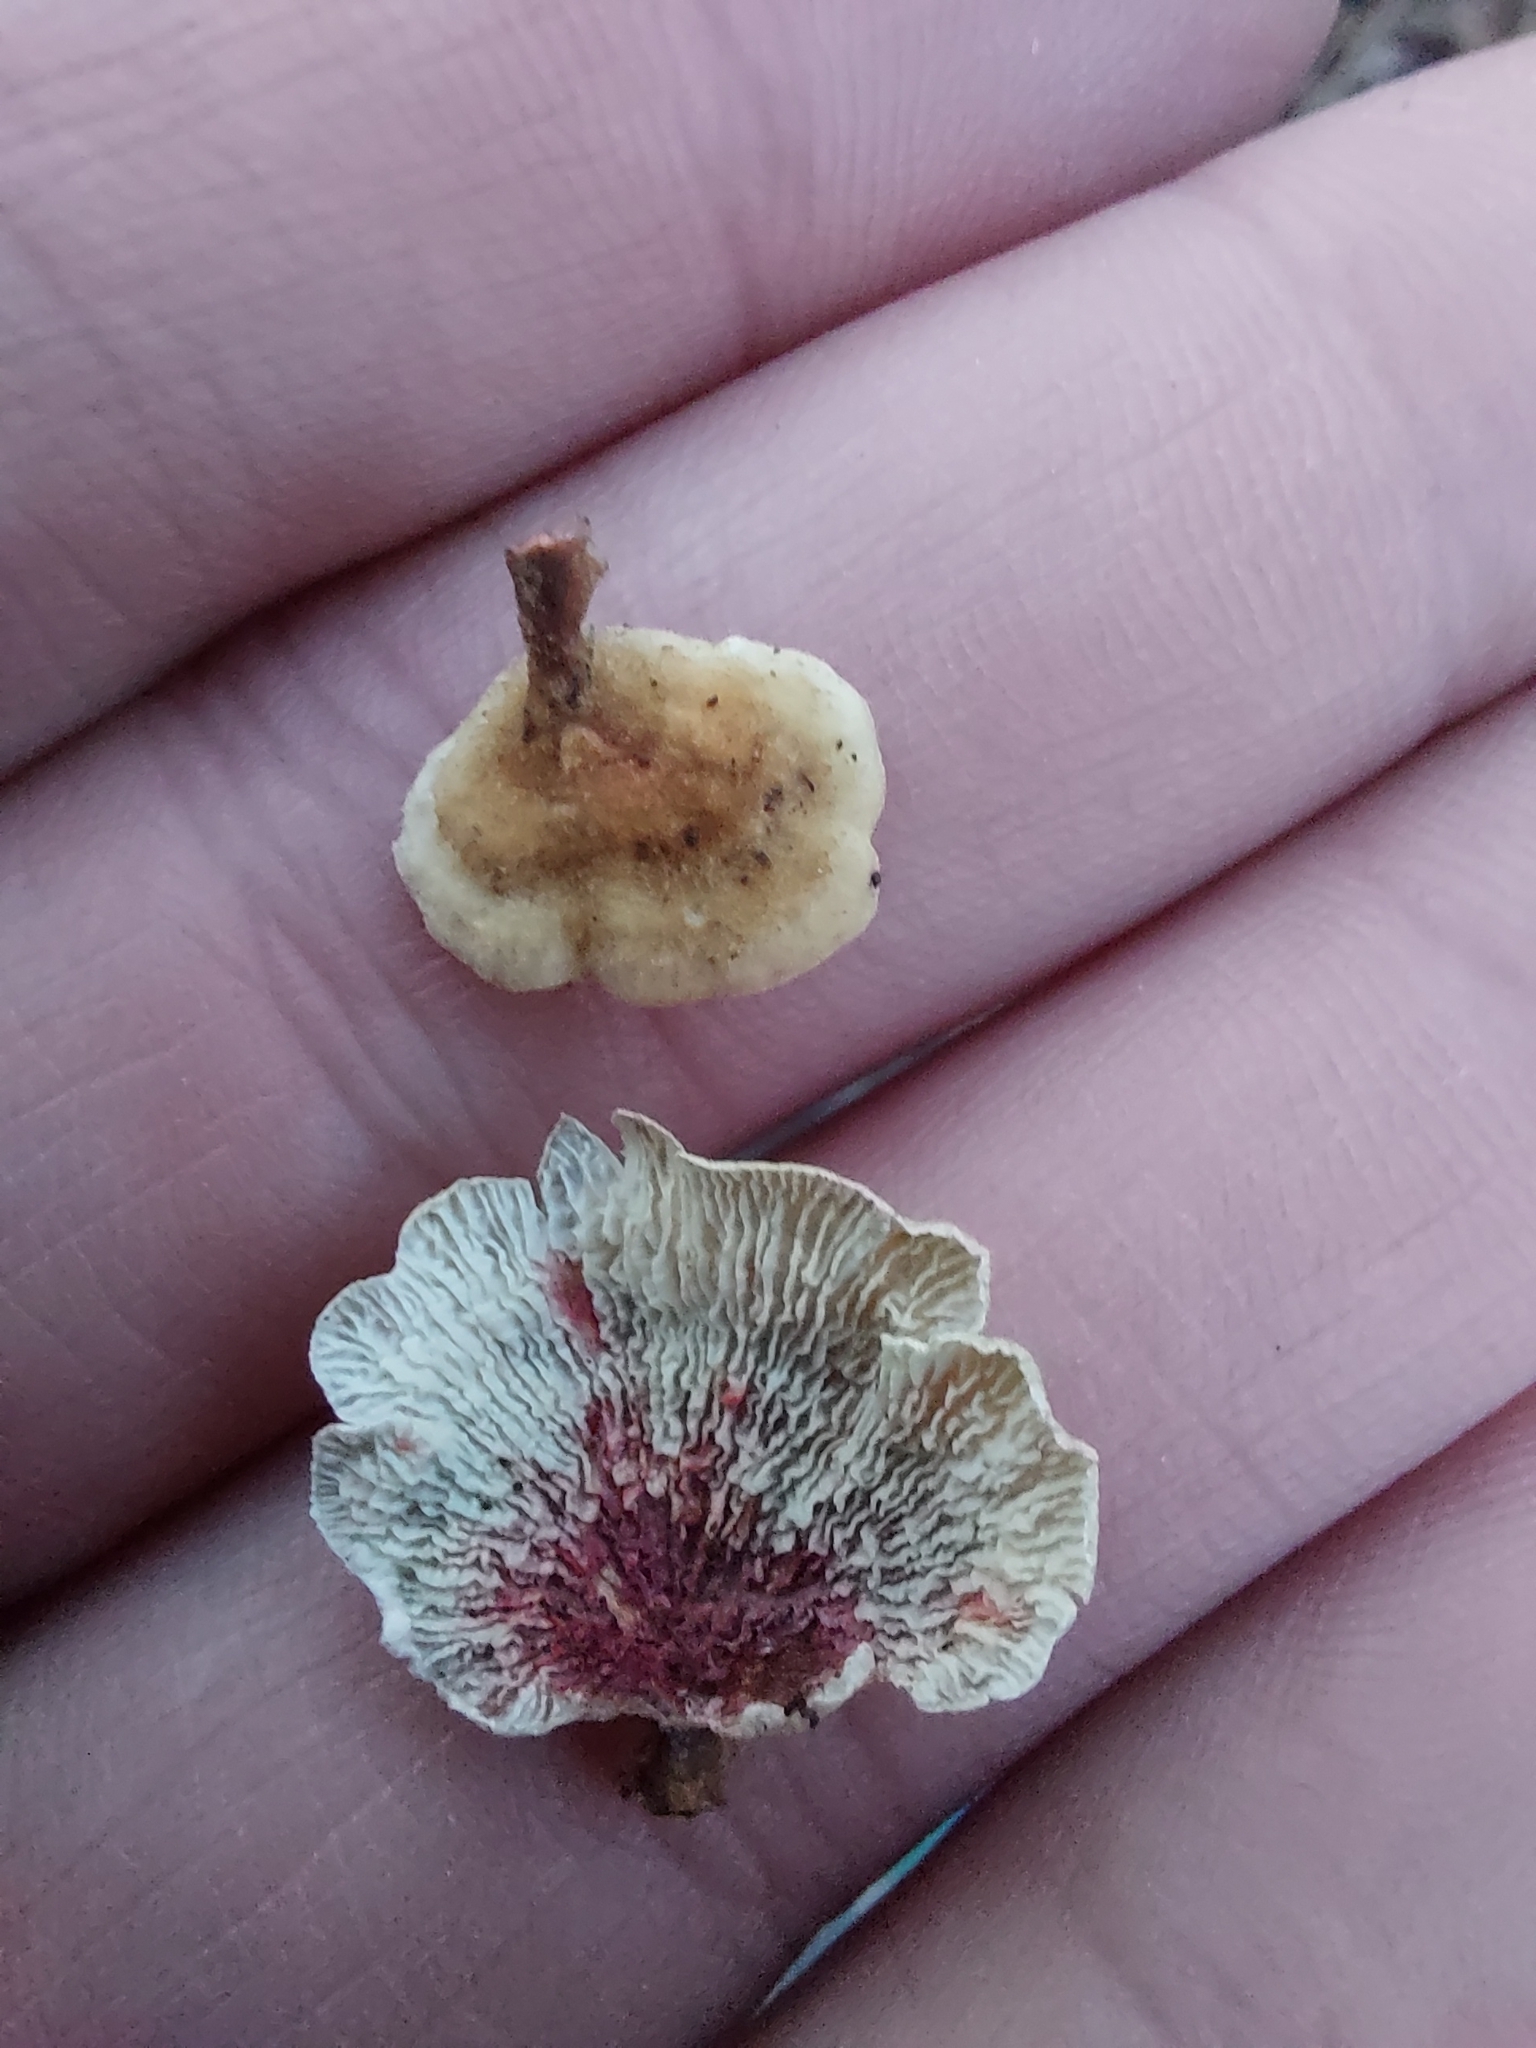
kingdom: Fungi
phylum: Basidiomycota
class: Agaricomycetes
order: Amylocorticiales
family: Amylocorticiaceae
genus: Plicaturopsis
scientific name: Plicaturopsis crispa
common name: Crimped gill
